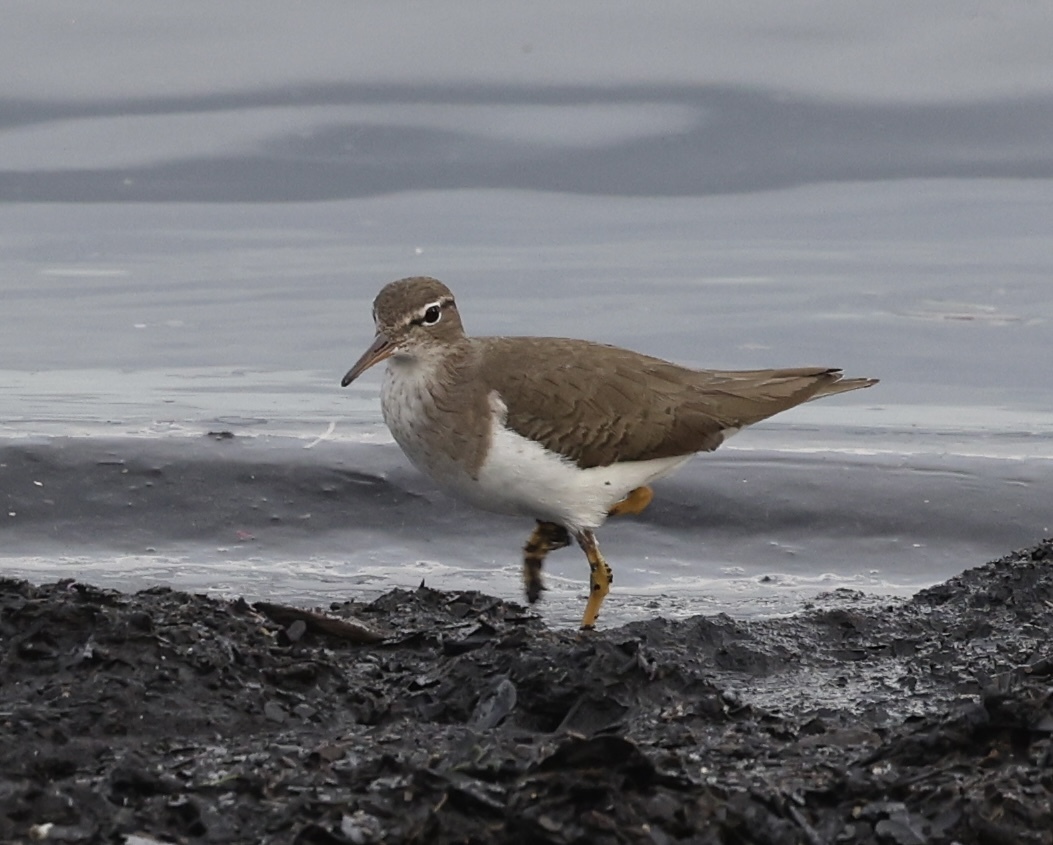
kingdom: Animalia
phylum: Chordata
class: Aves
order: Charadriiformes
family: Scolopacidae
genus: Actitis
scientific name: Actitis macularius
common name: Spotted sandpiper
